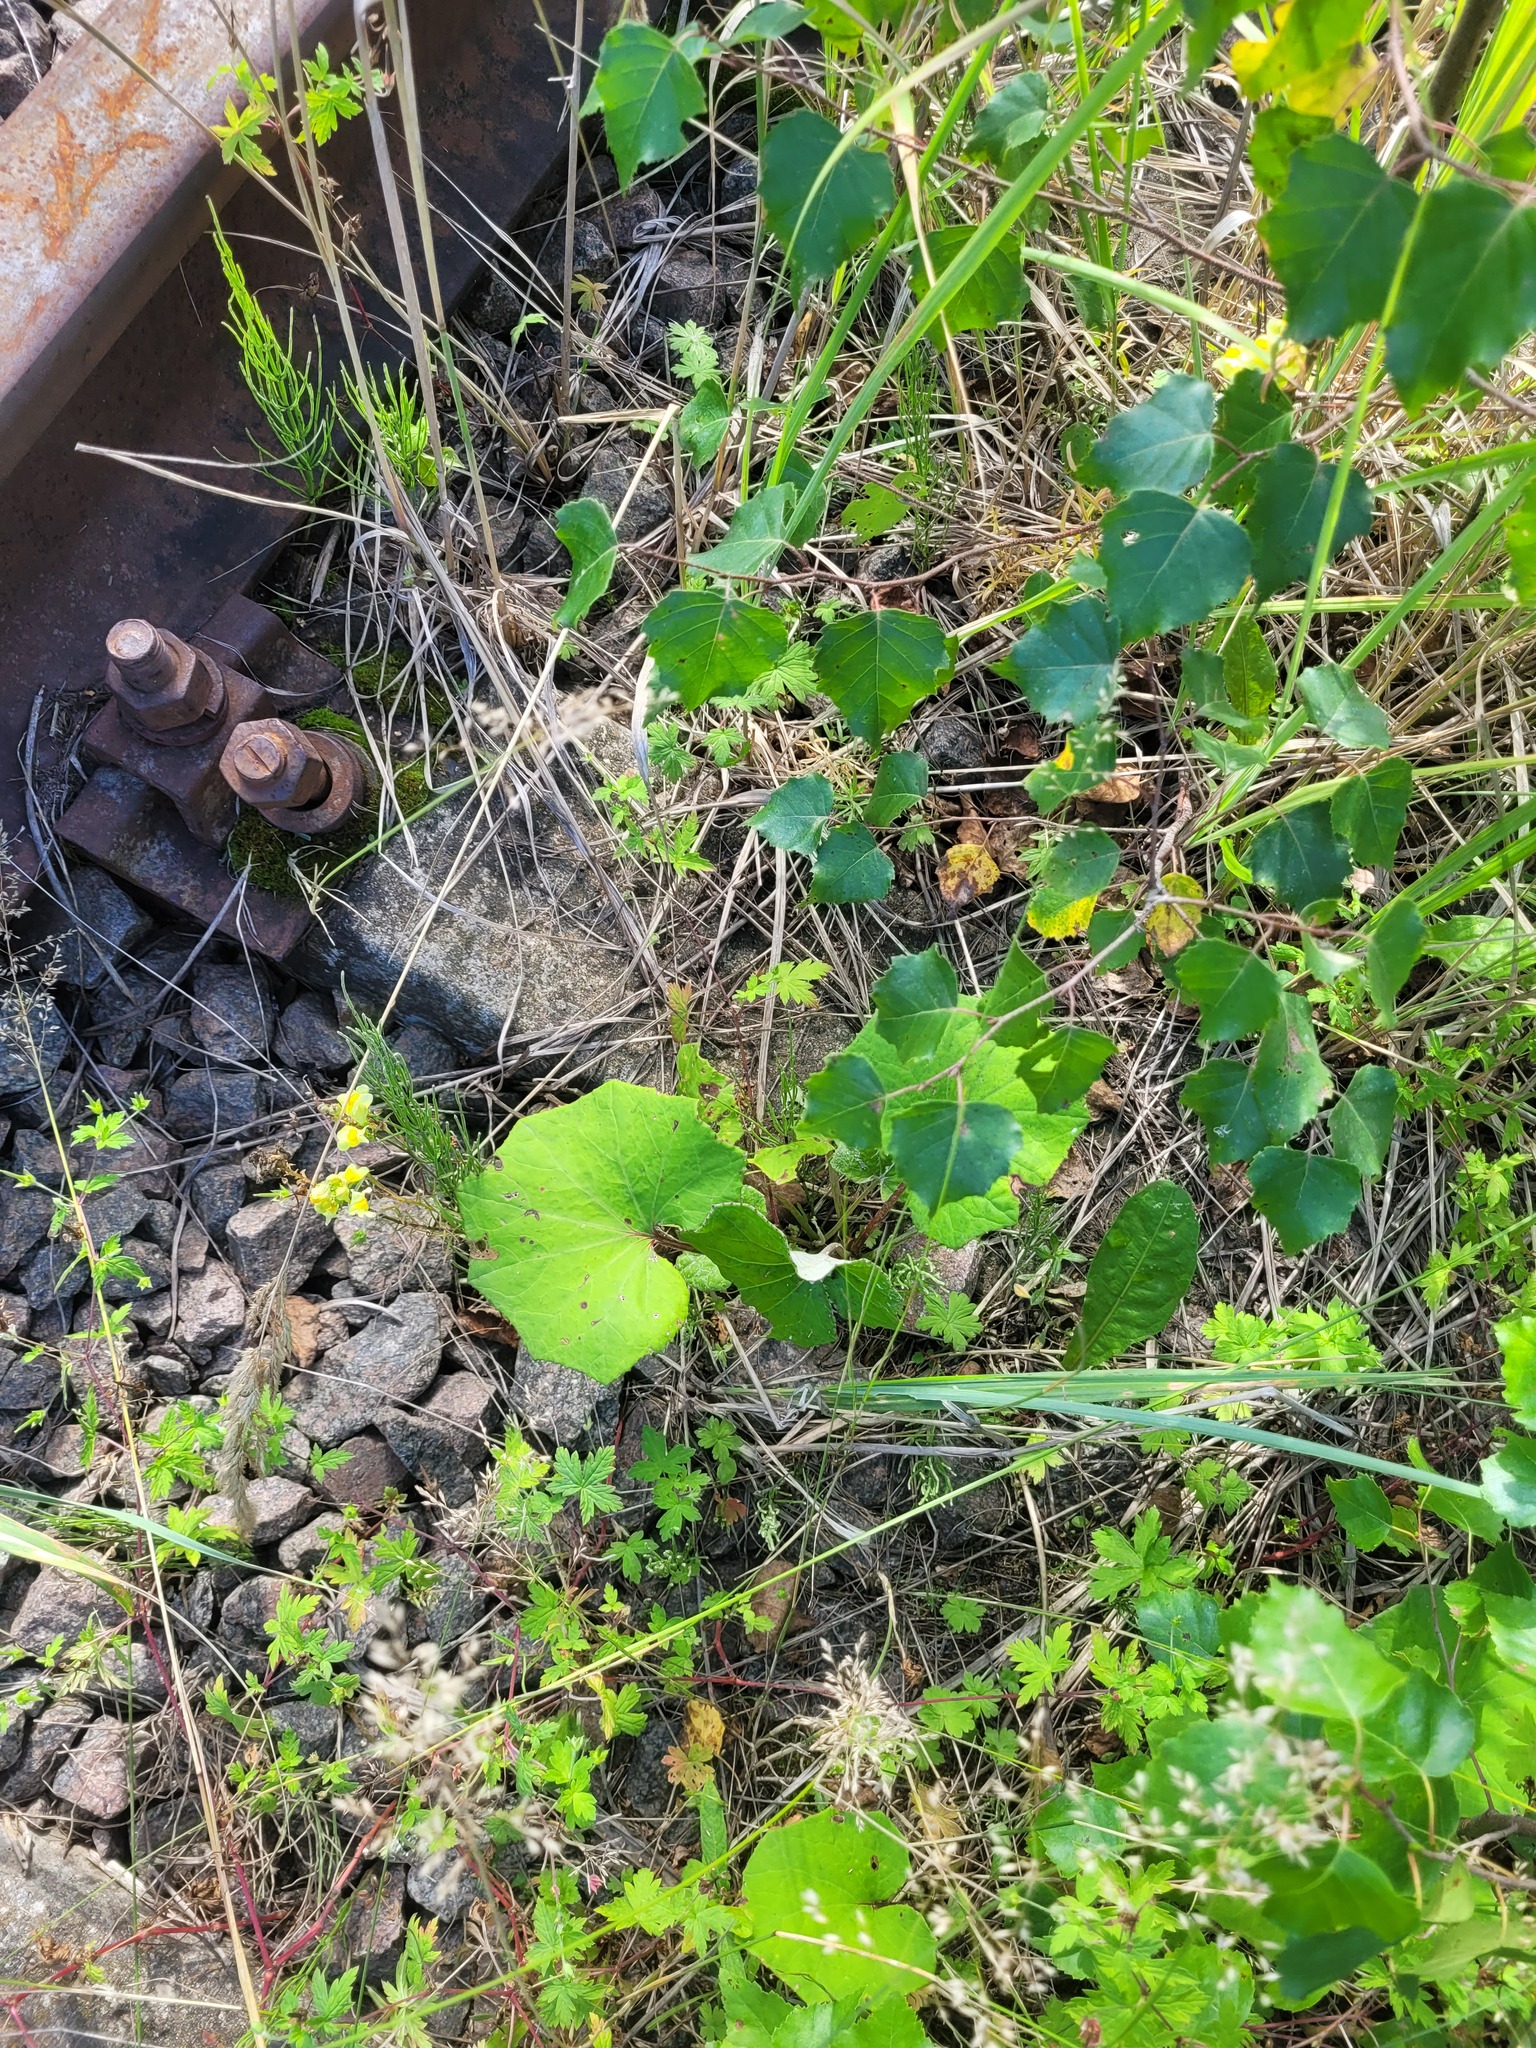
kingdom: Plantae
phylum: Tracheophyta
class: Magnoliopsida
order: Asterales
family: Asteraceae
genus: Tussilago
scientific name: Tussilago farfara
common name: Coltsfoot
